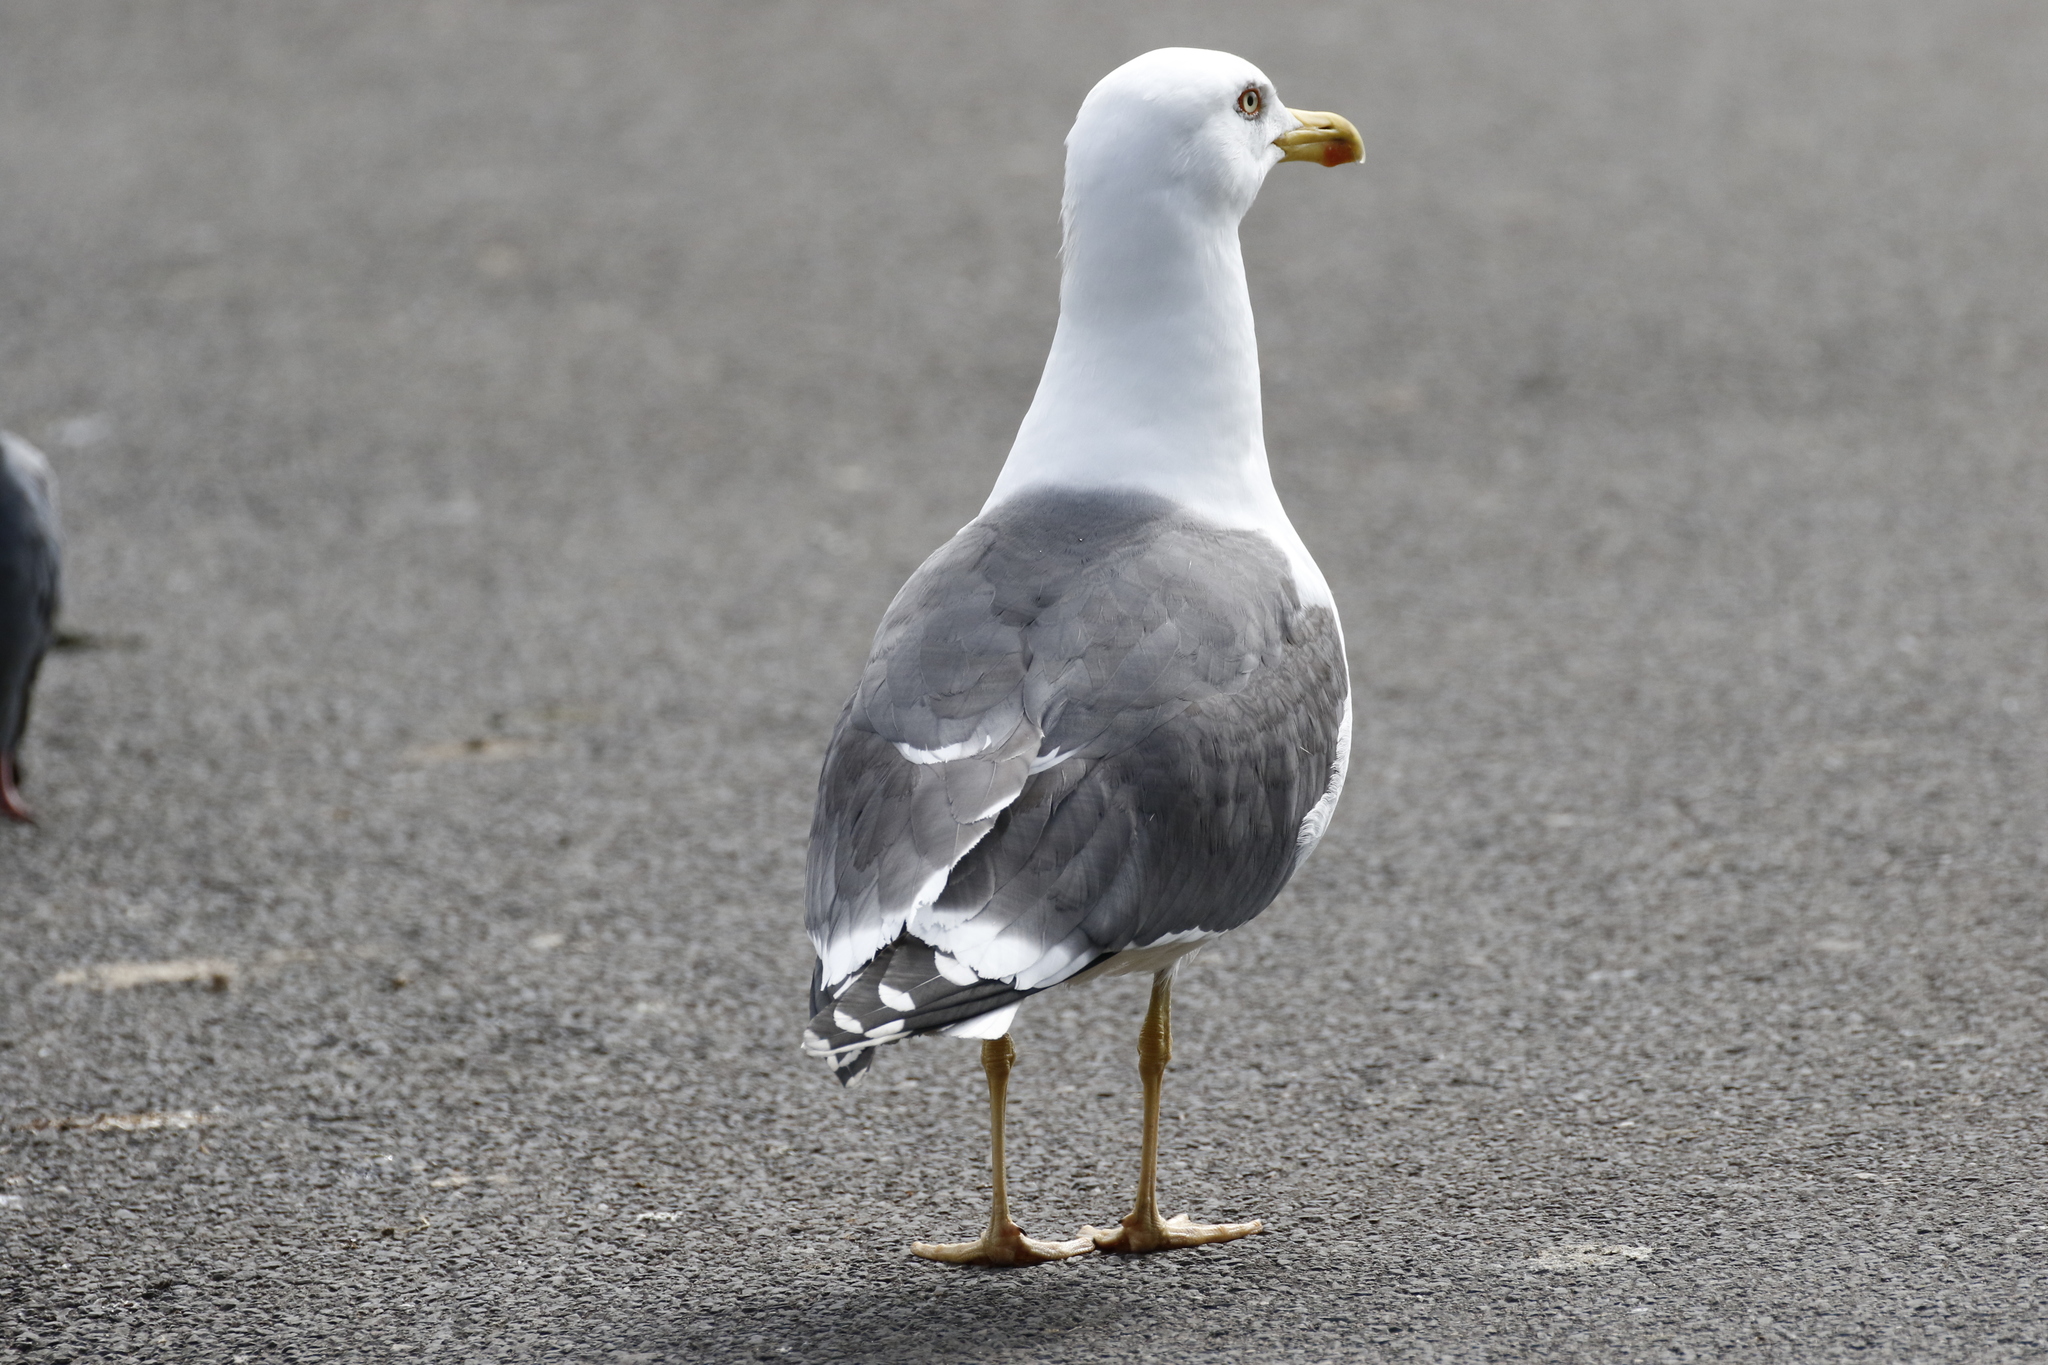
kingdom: Animalia
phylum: Chordata
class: Aves
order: Charadriiformes
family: Laridae
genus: Larus
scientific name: Larus fuscus
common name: Lesser black-backed gull
